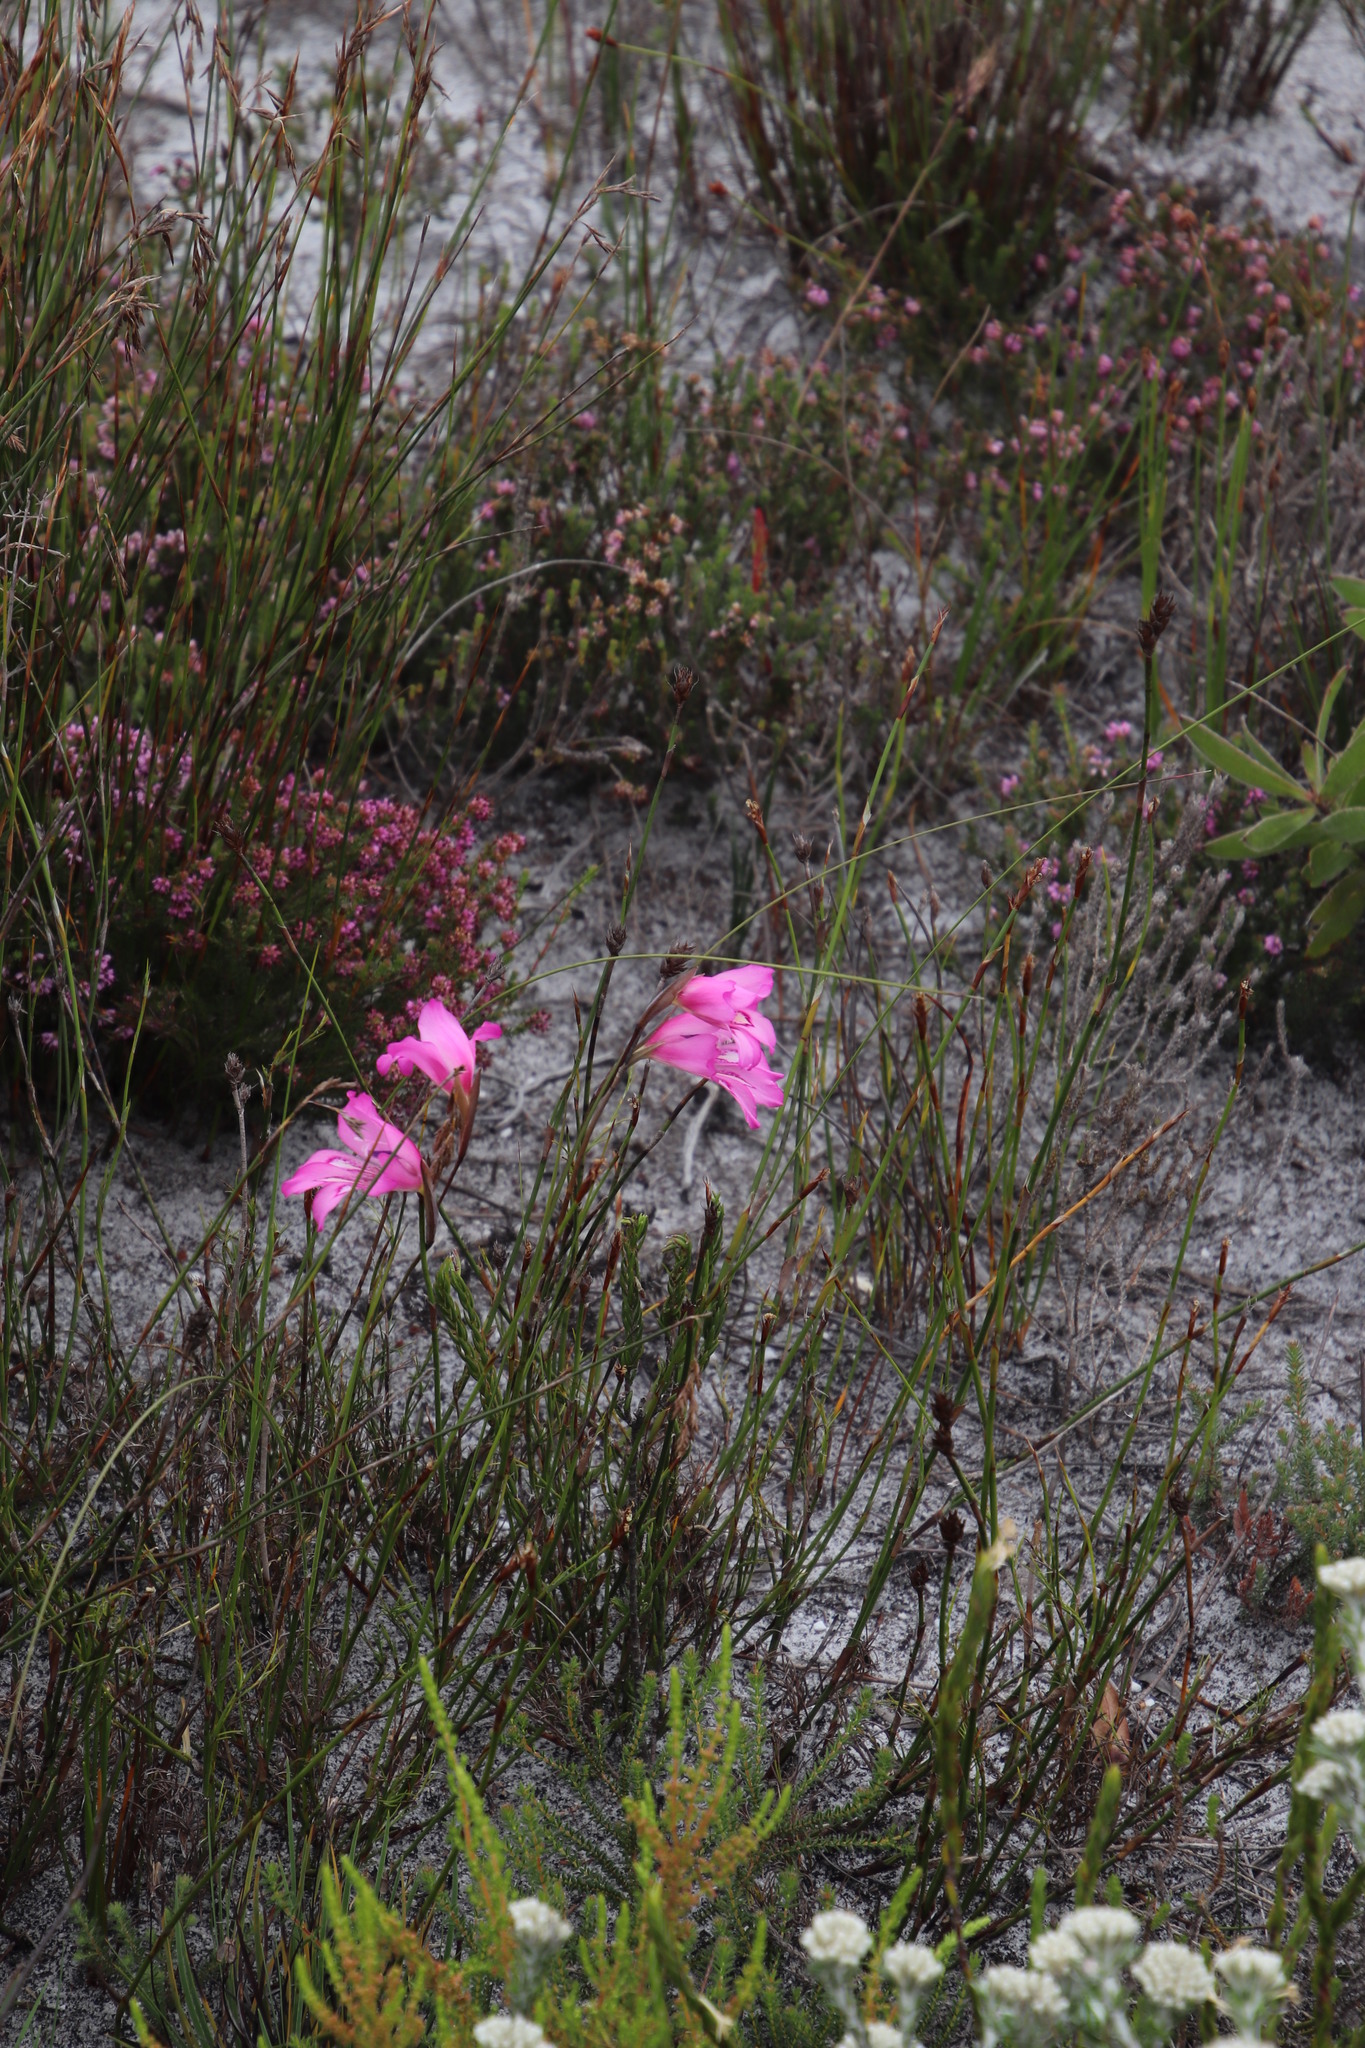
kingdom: Plantae
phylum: Tracheophyta
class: Liliopsida
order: Asparagales
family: Iridaceae
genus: Gladiolus
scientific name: Gladiolus ornatus
